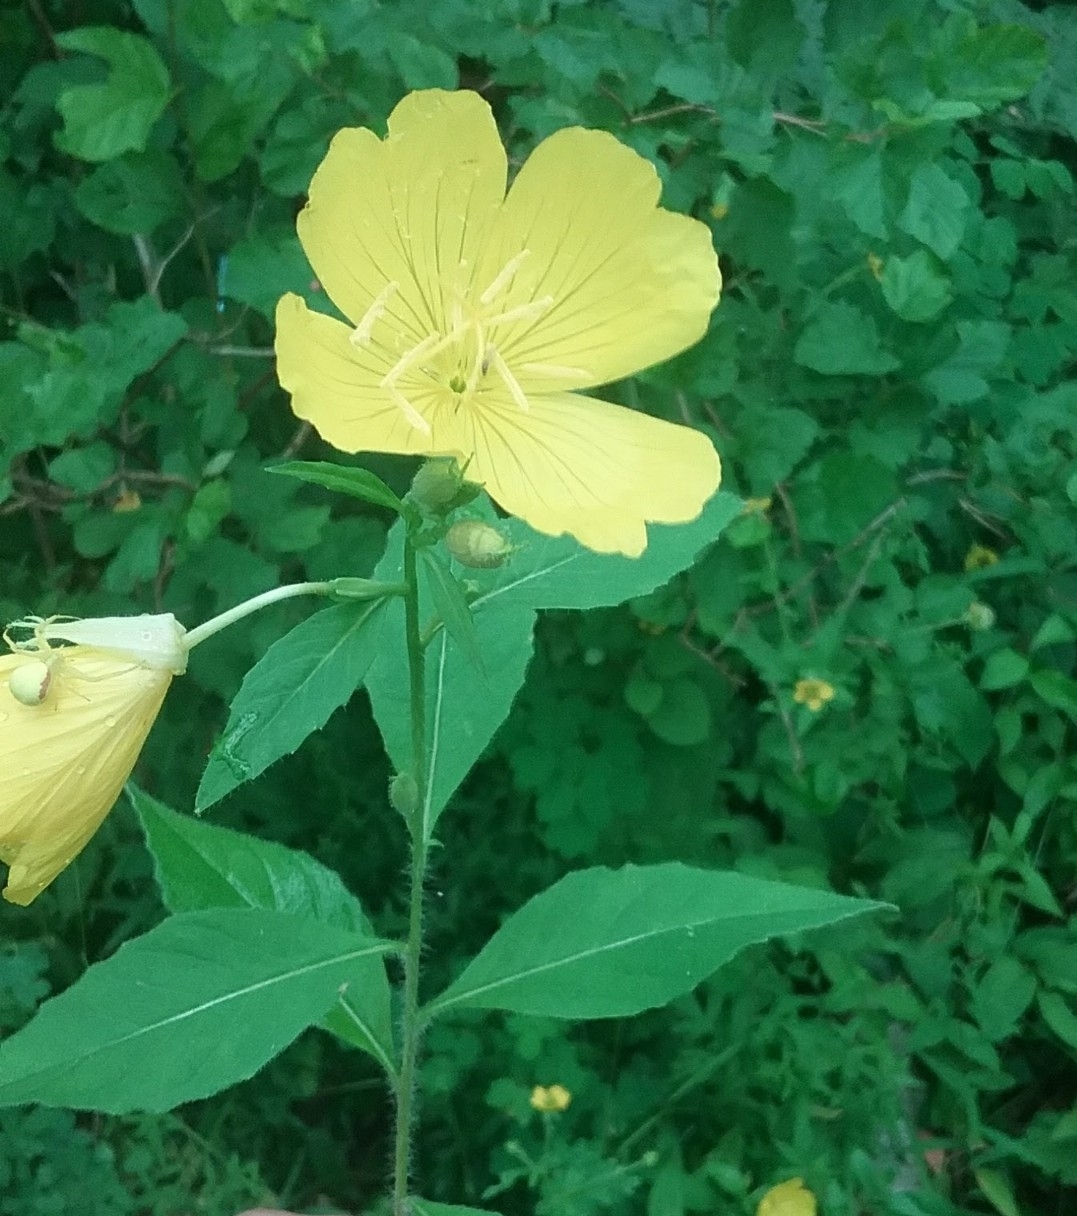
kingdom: Plantae
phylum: Tracheophyta
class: Magnoliopsida
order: Myrtales
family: Onagraceae
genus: Oenothera
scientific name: Oenothera pilosella
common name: Finely-pilose evening-primrose
